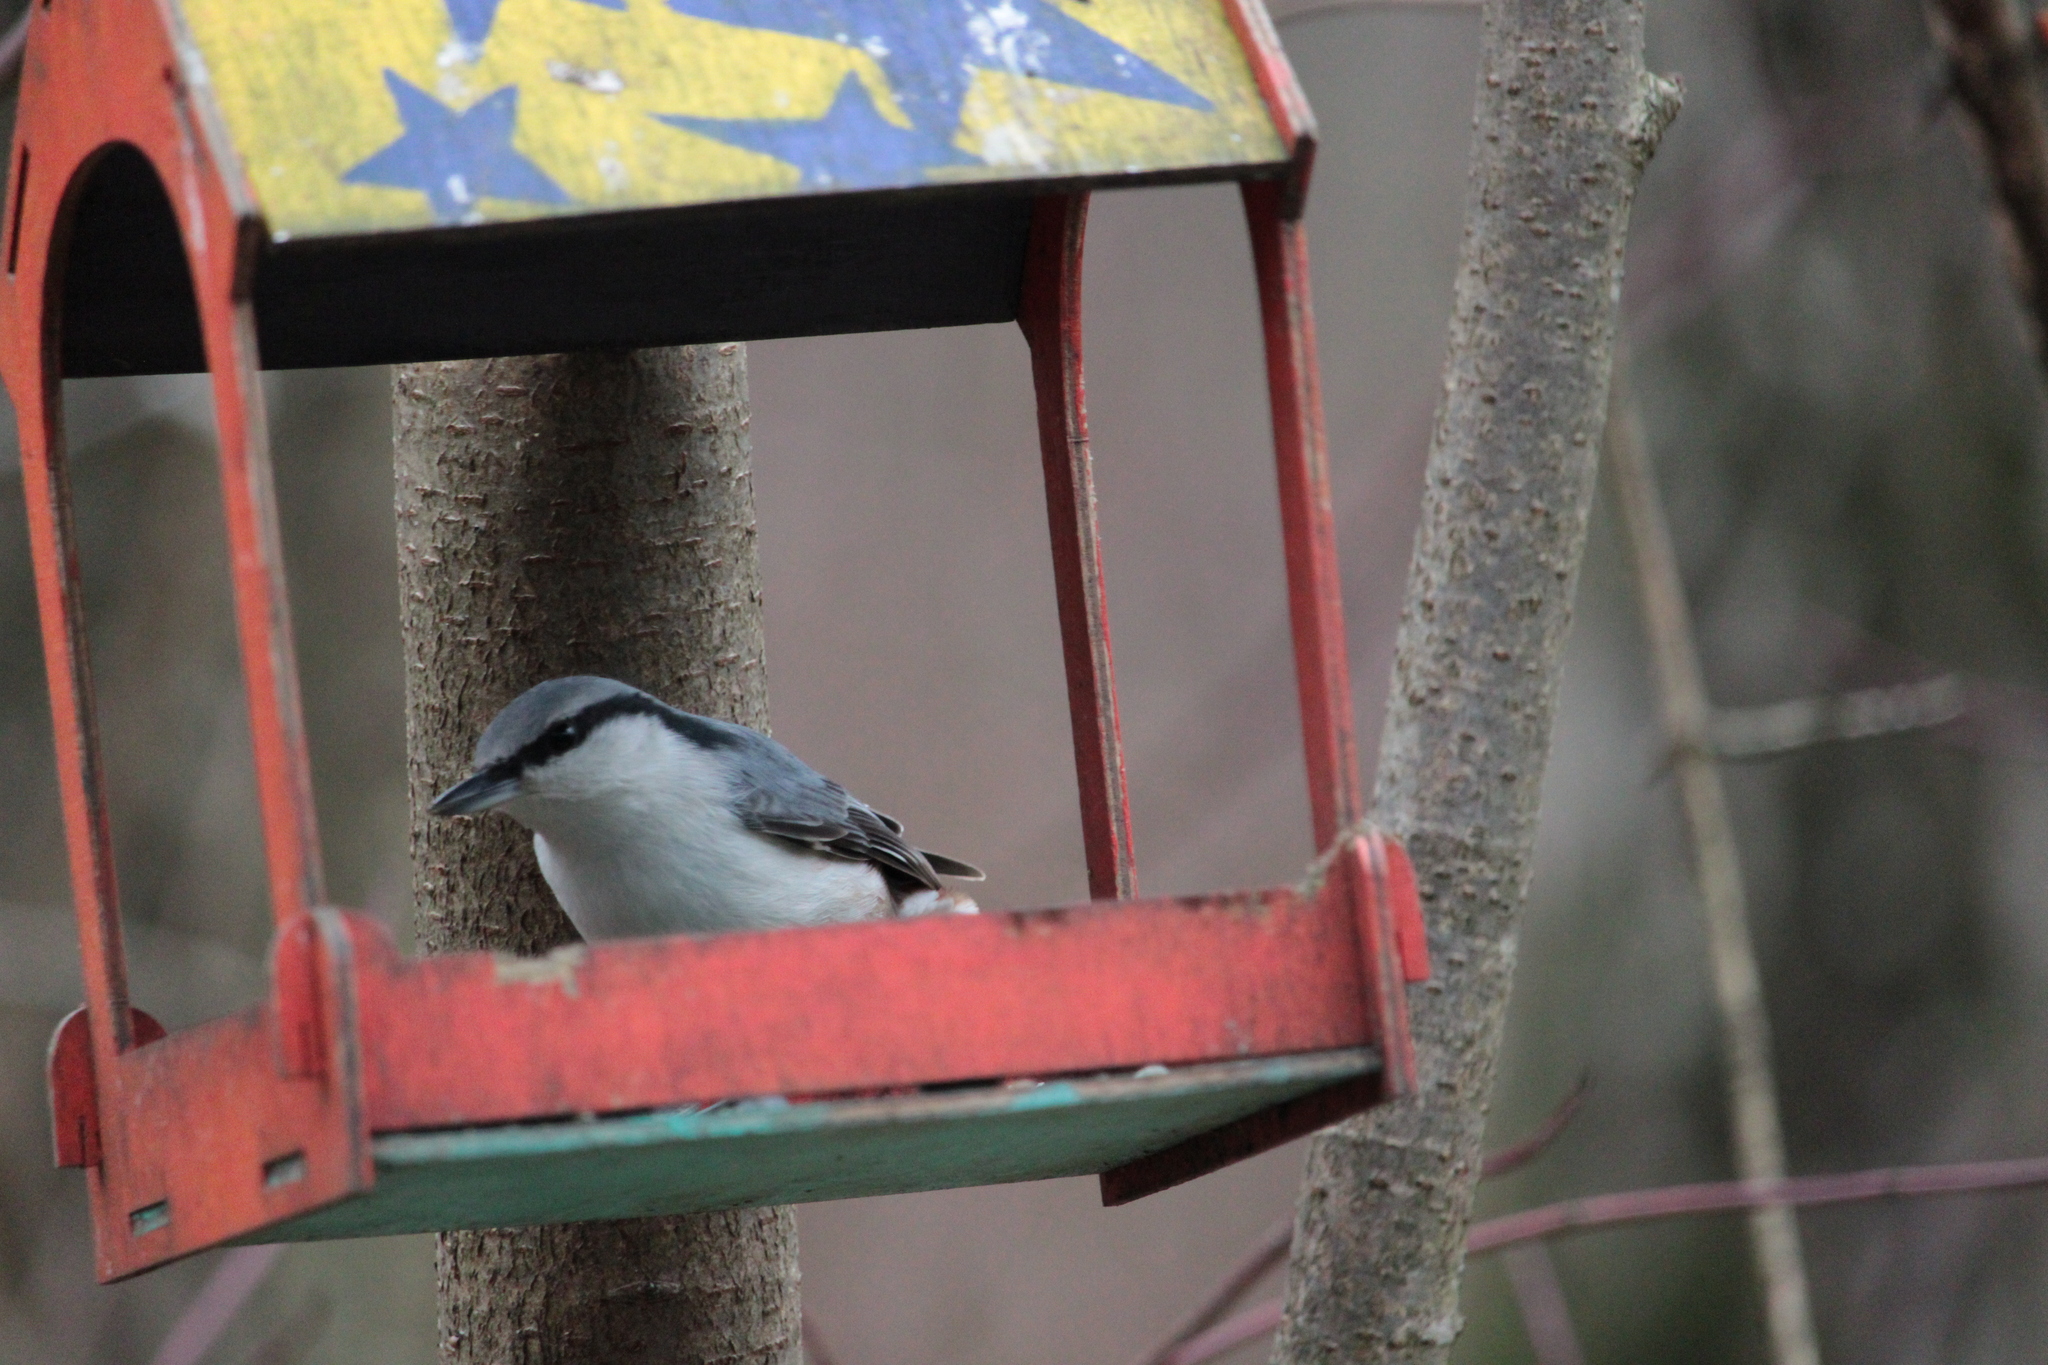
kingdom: Animalia
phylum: Chordata
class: Aves
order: Passeriformes
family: Sittidae
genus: Sitta
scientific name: Sitta europaea
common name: Eurasian nuthatch
